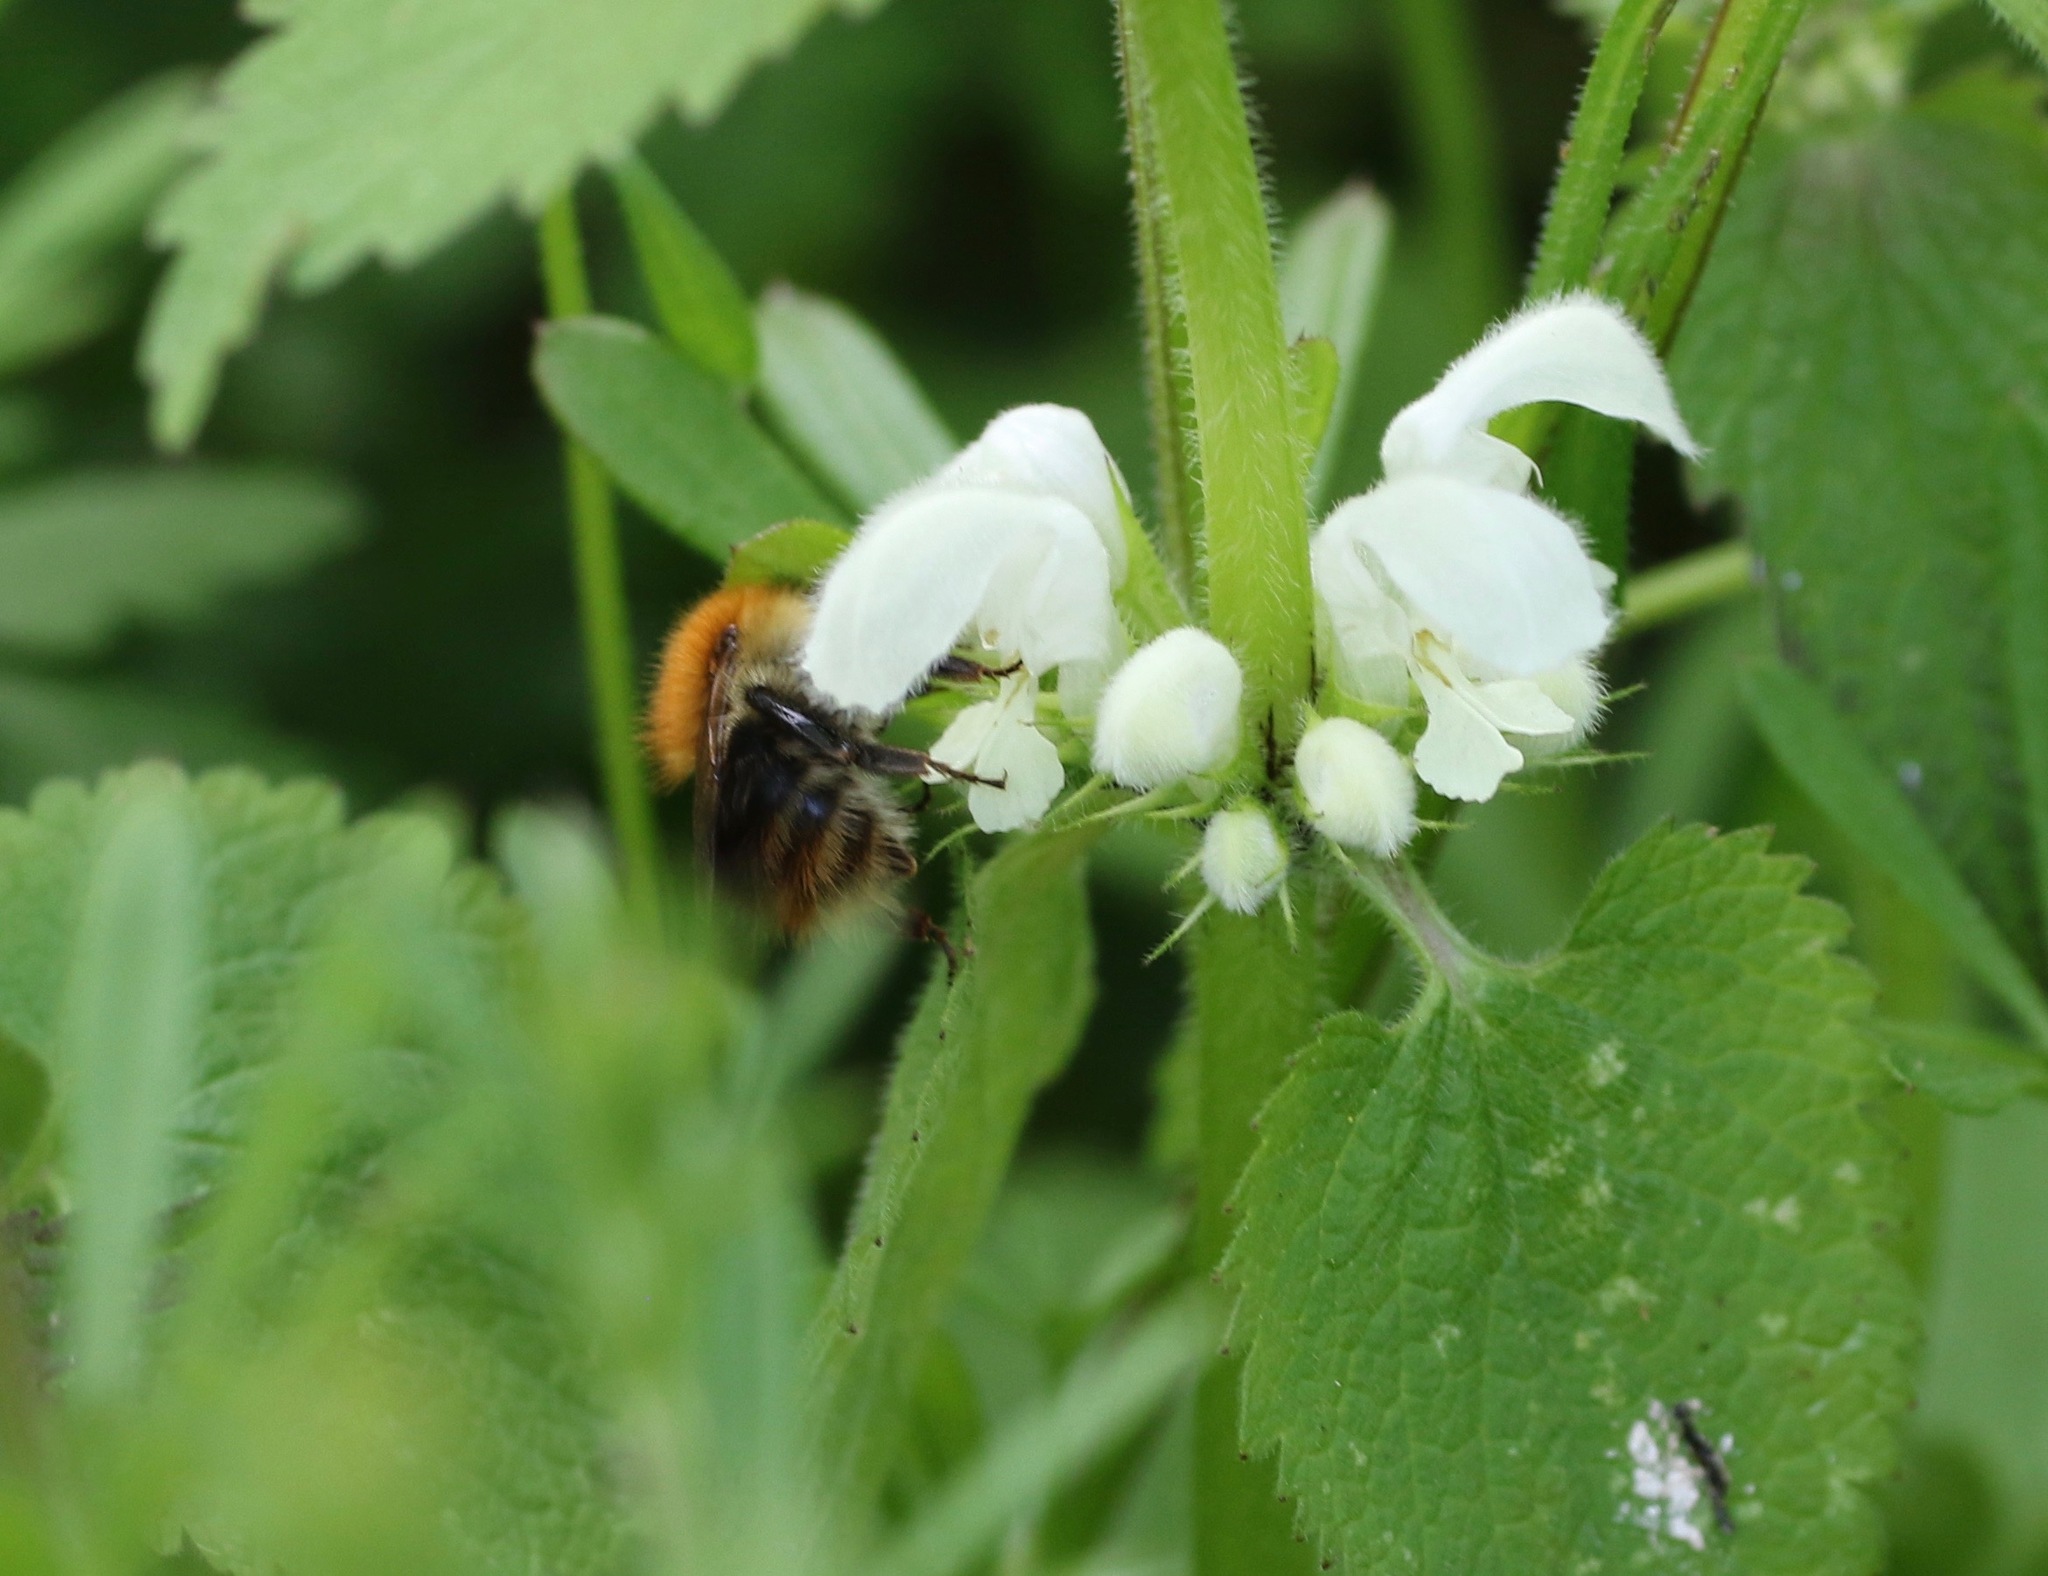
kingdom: Animalia
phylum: Arthropoda
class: Insecta
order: Hymenoptera
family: Apidae
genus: Bombus
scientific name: Bombus pascuorum
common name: Common carder bee
